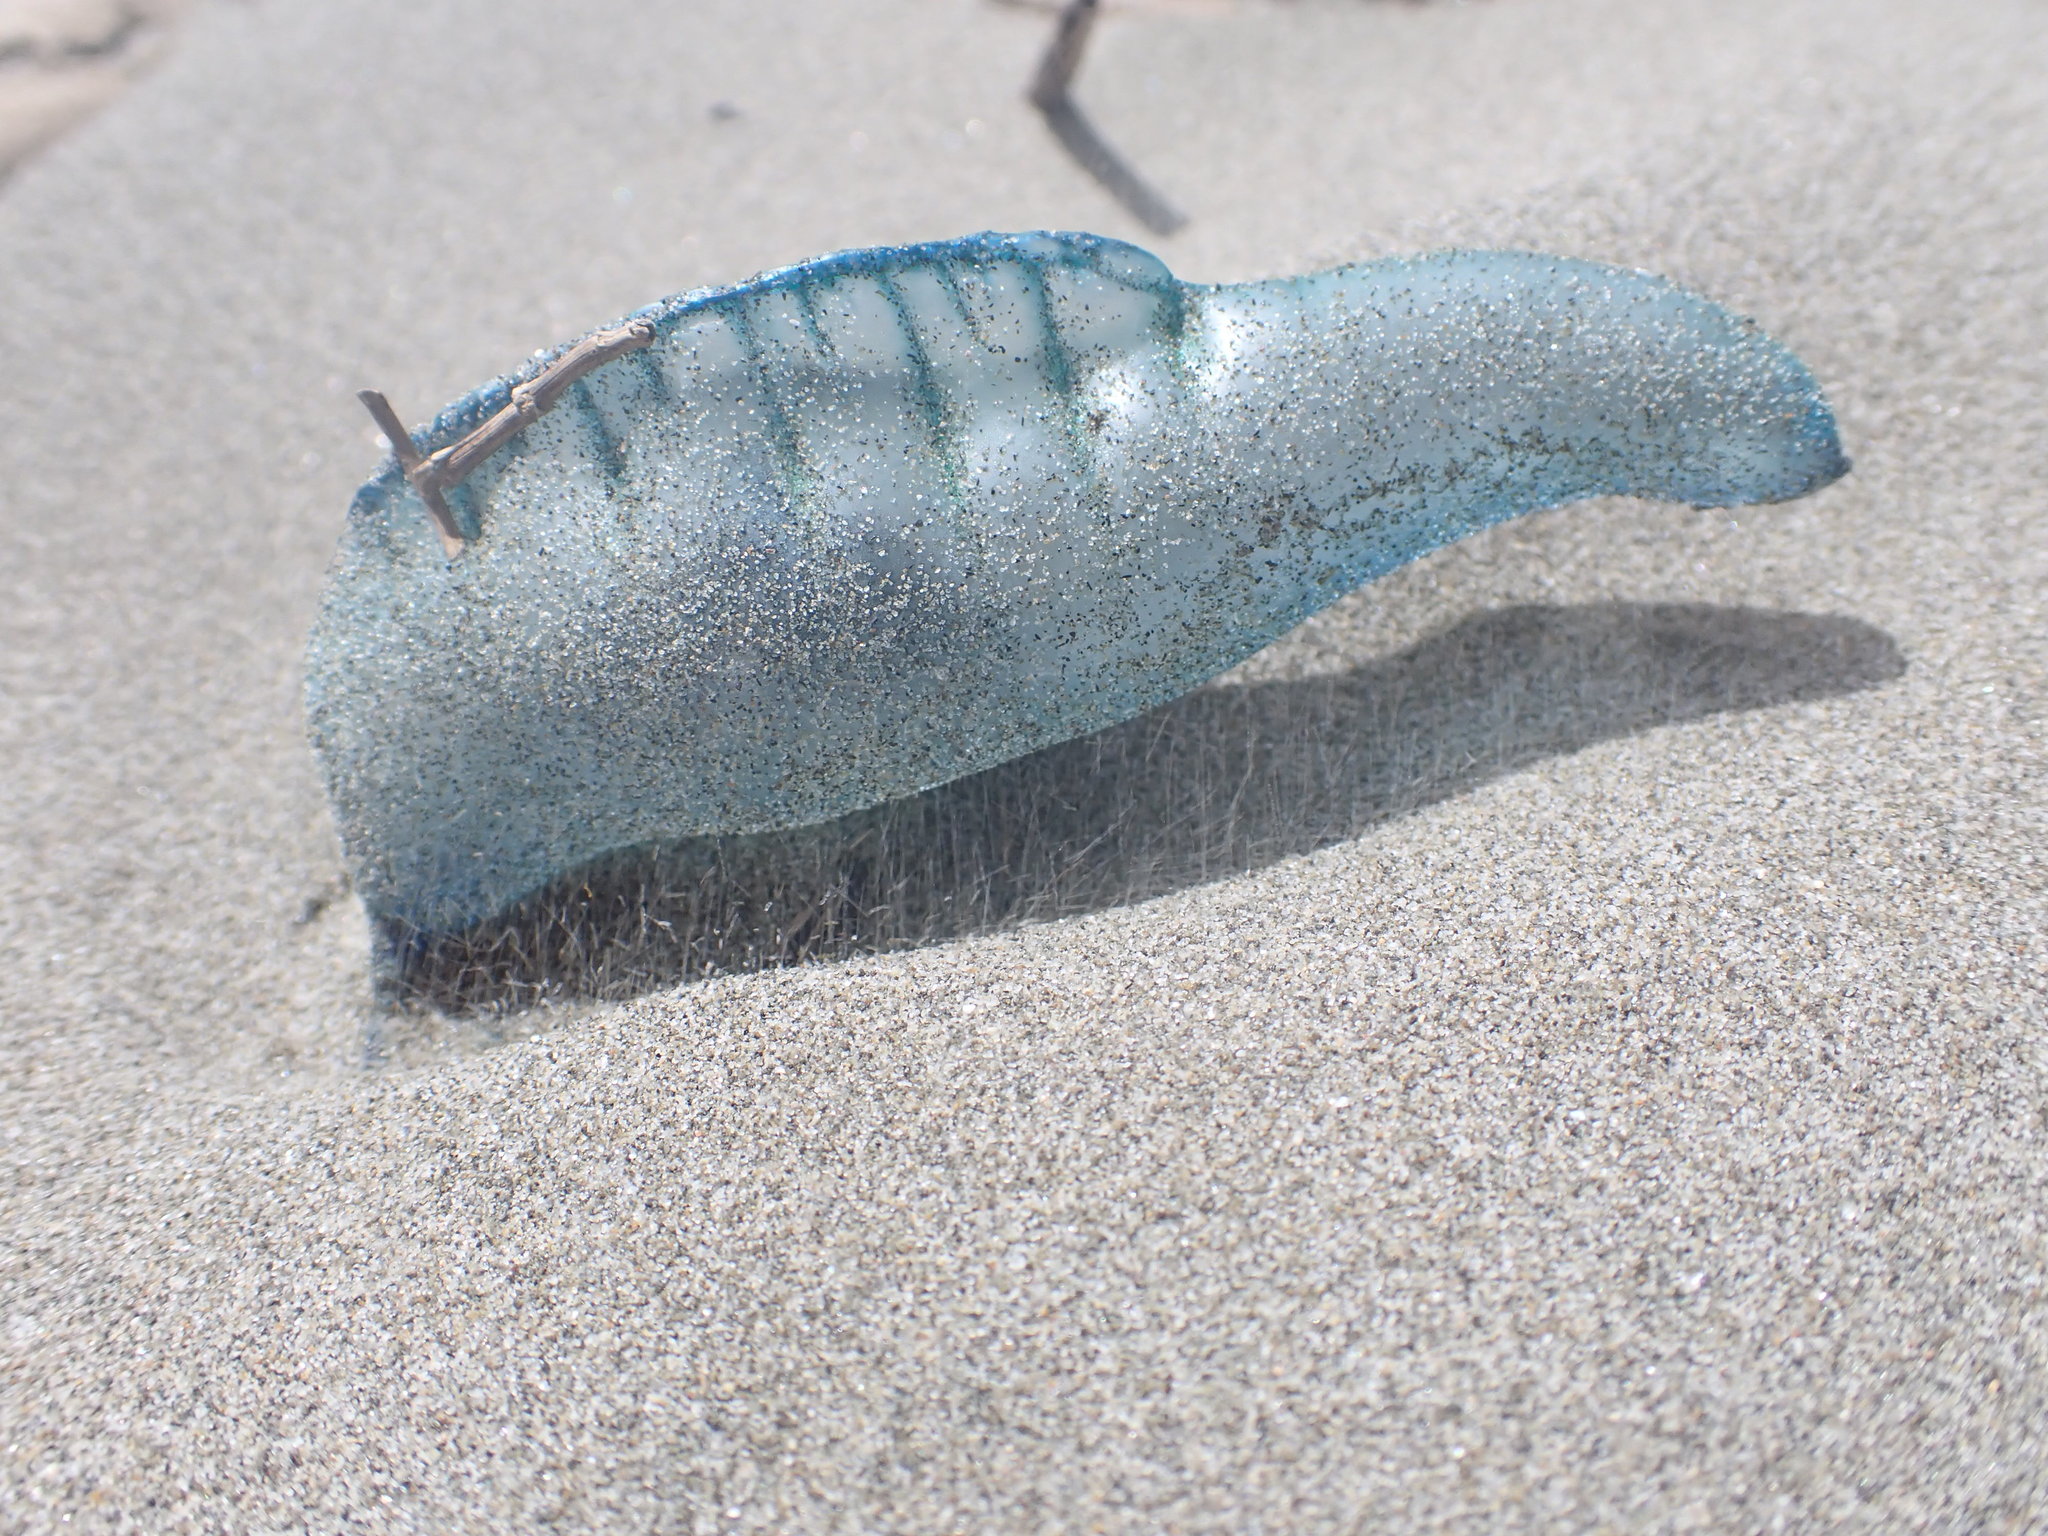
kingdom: Animalia
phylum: Cnidaria
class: Hydrozoa
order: Siphonophorae
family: Physaliidae
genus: Physalia
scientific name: Physalia physalis
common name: Portuguese man-of-war
